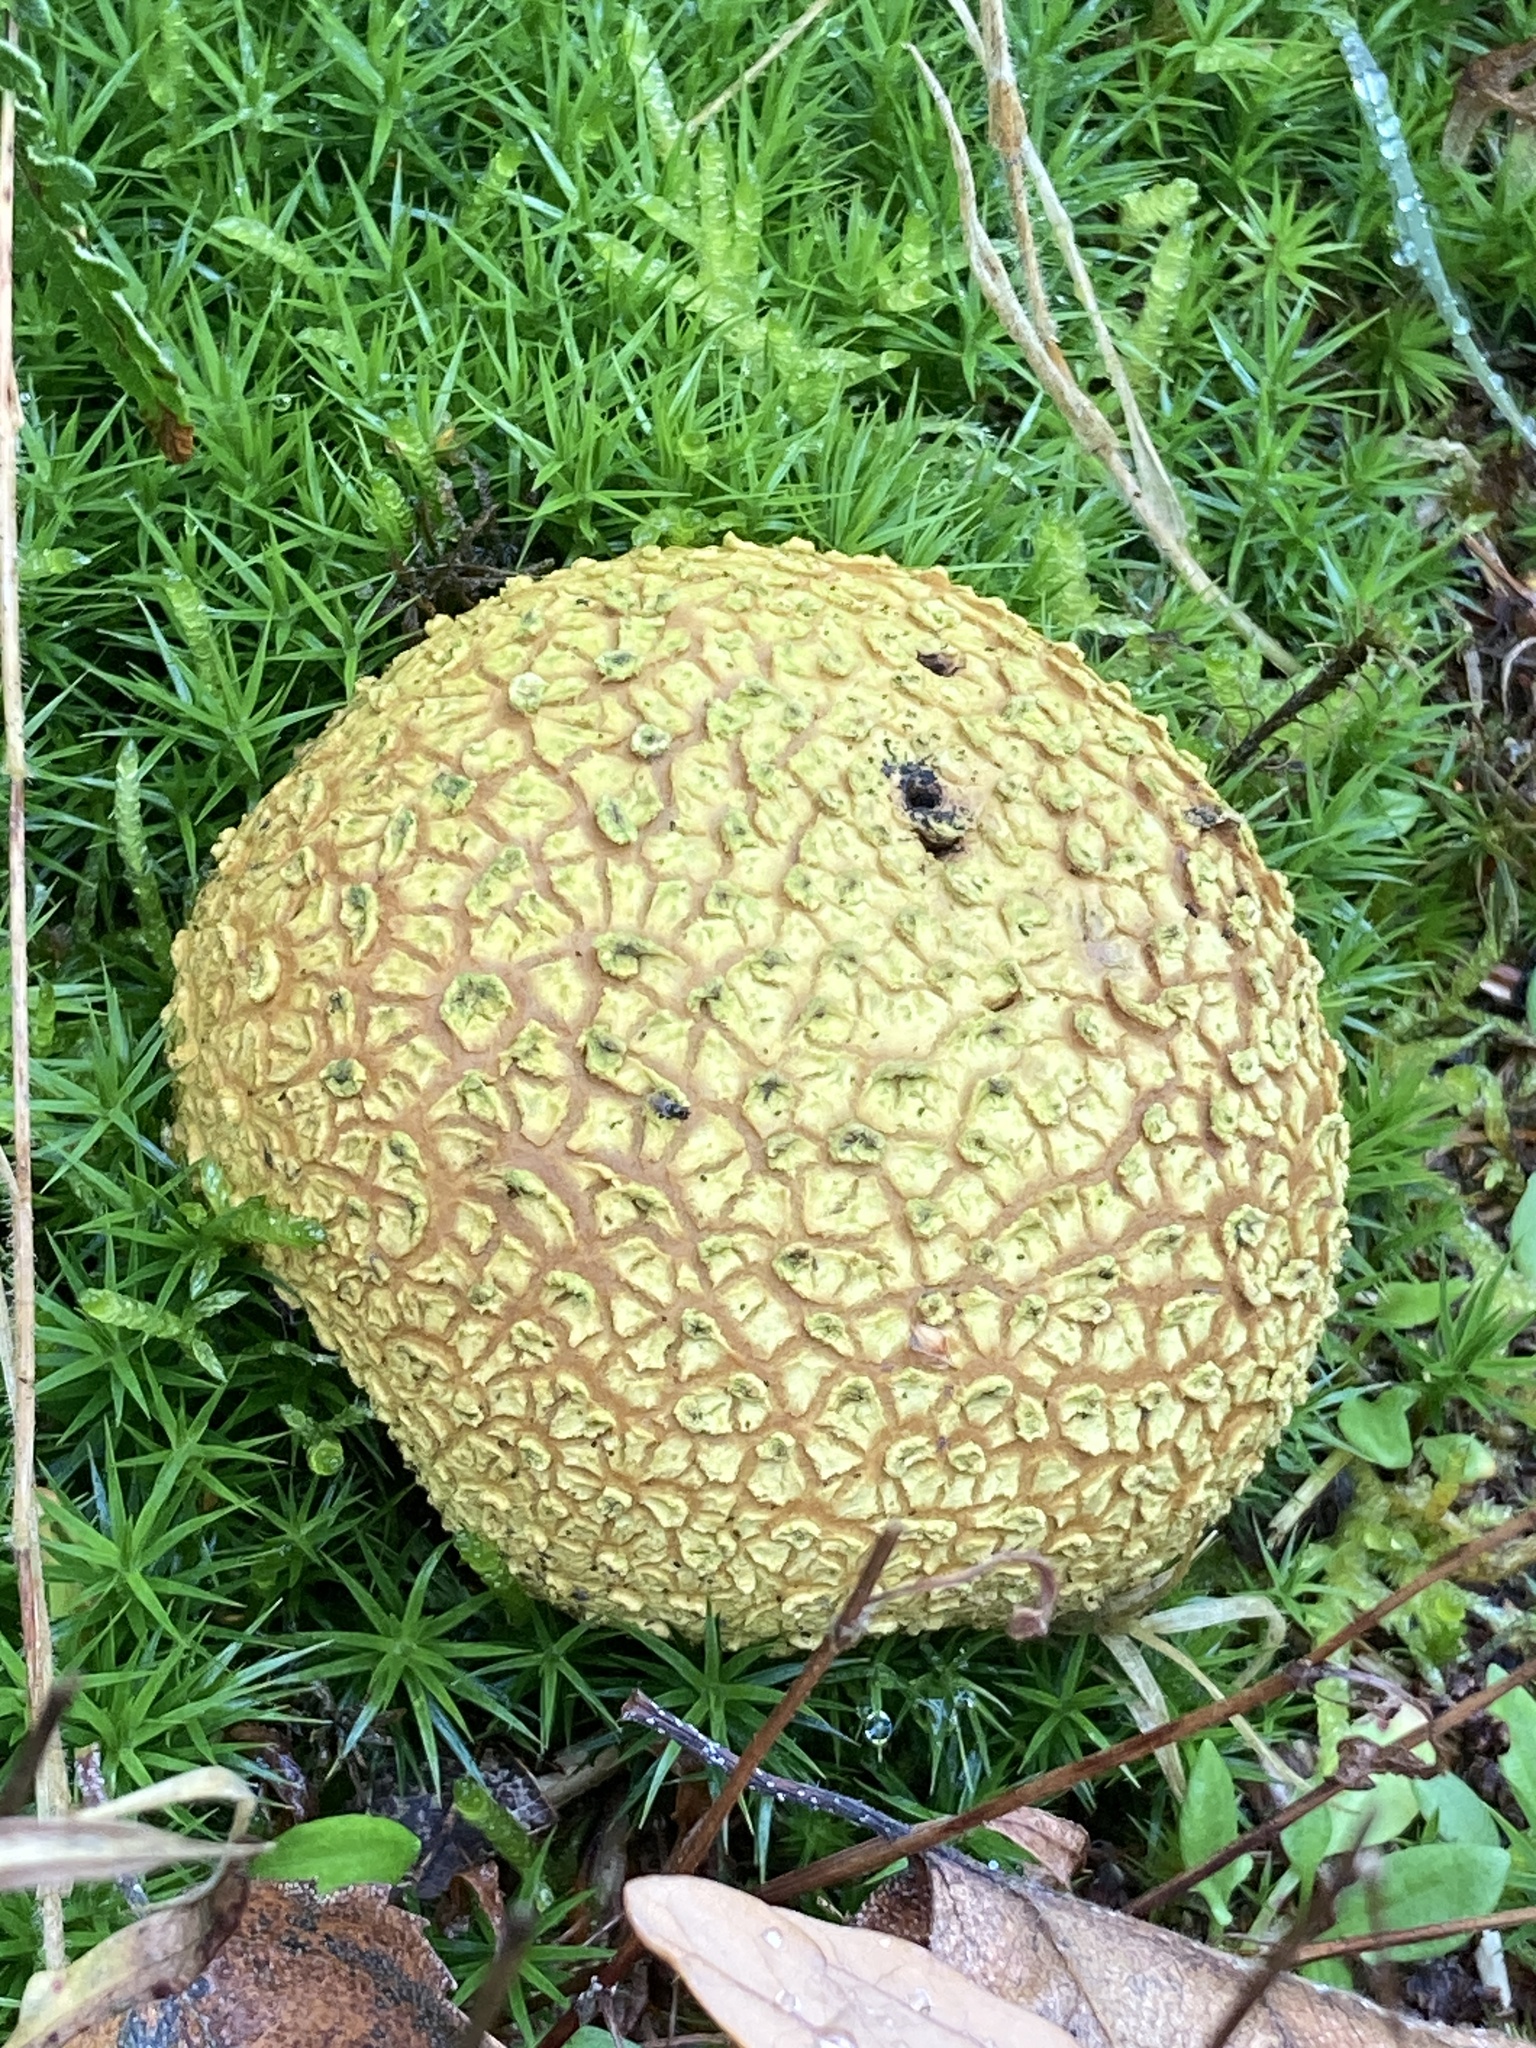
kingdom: Fungi
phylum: Basidiomycota
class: Agaricomycetes
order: Boletales
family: Sclerodermataceae
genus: Scleroderma
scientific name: Scleroderma citrinum
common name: Common earthball
